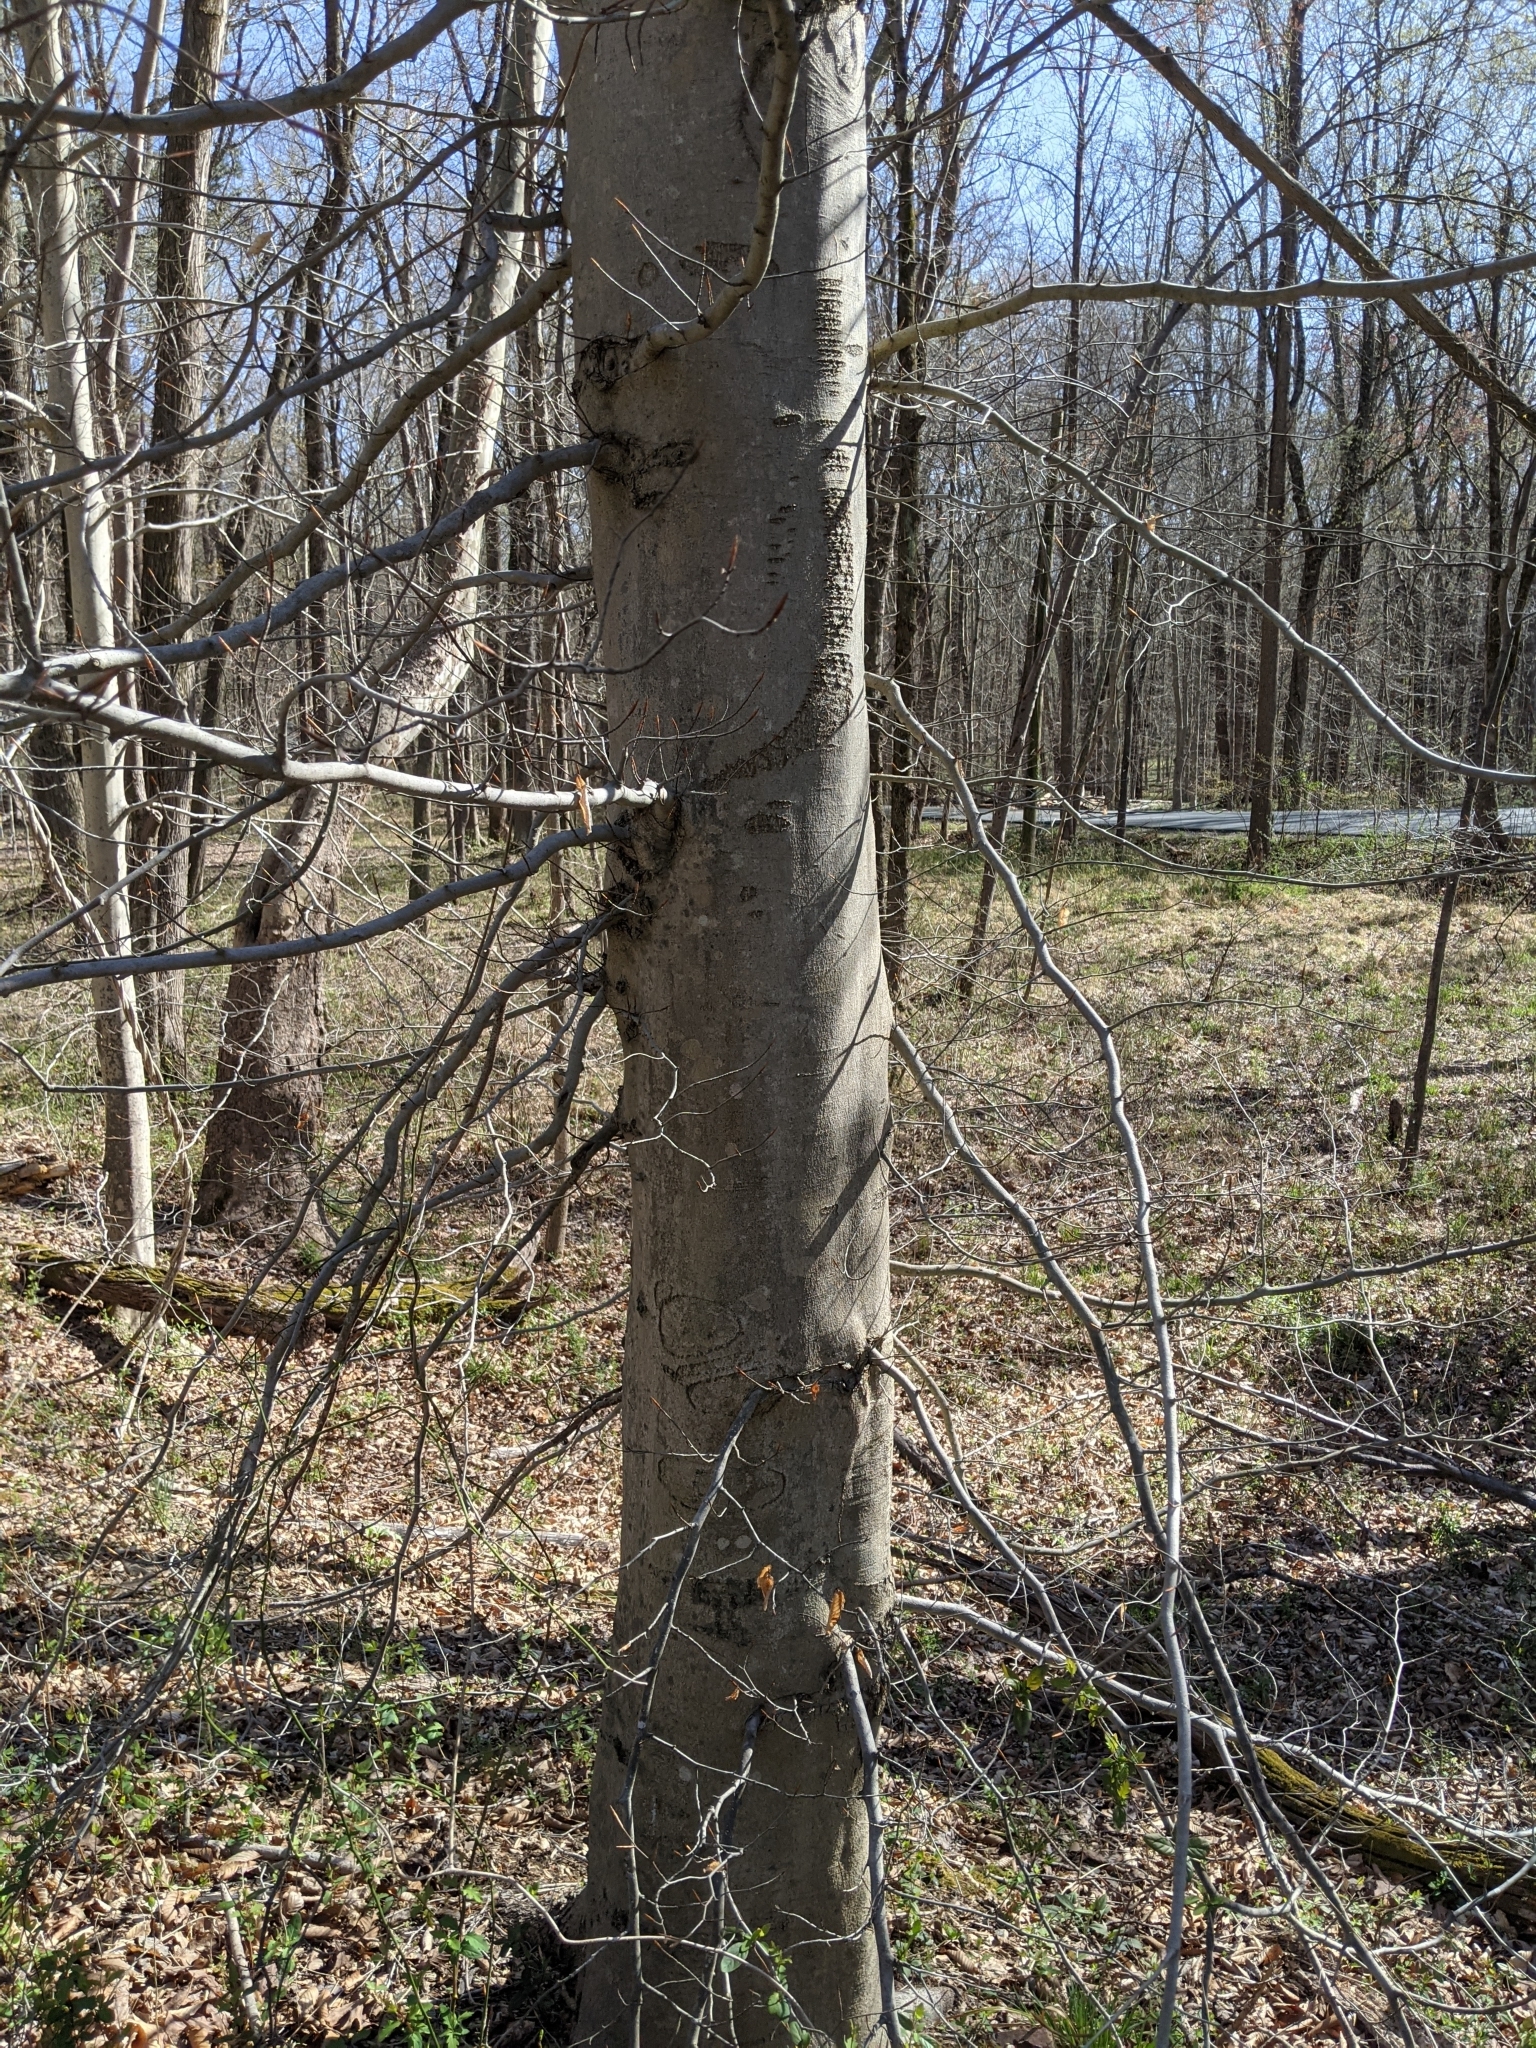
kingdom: Plantae
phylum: Tracheophyta
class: Magnoliopsida
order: Fagales
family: Fagaceae
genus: Fagus
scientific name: Fagus grandifolia
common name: American beech
